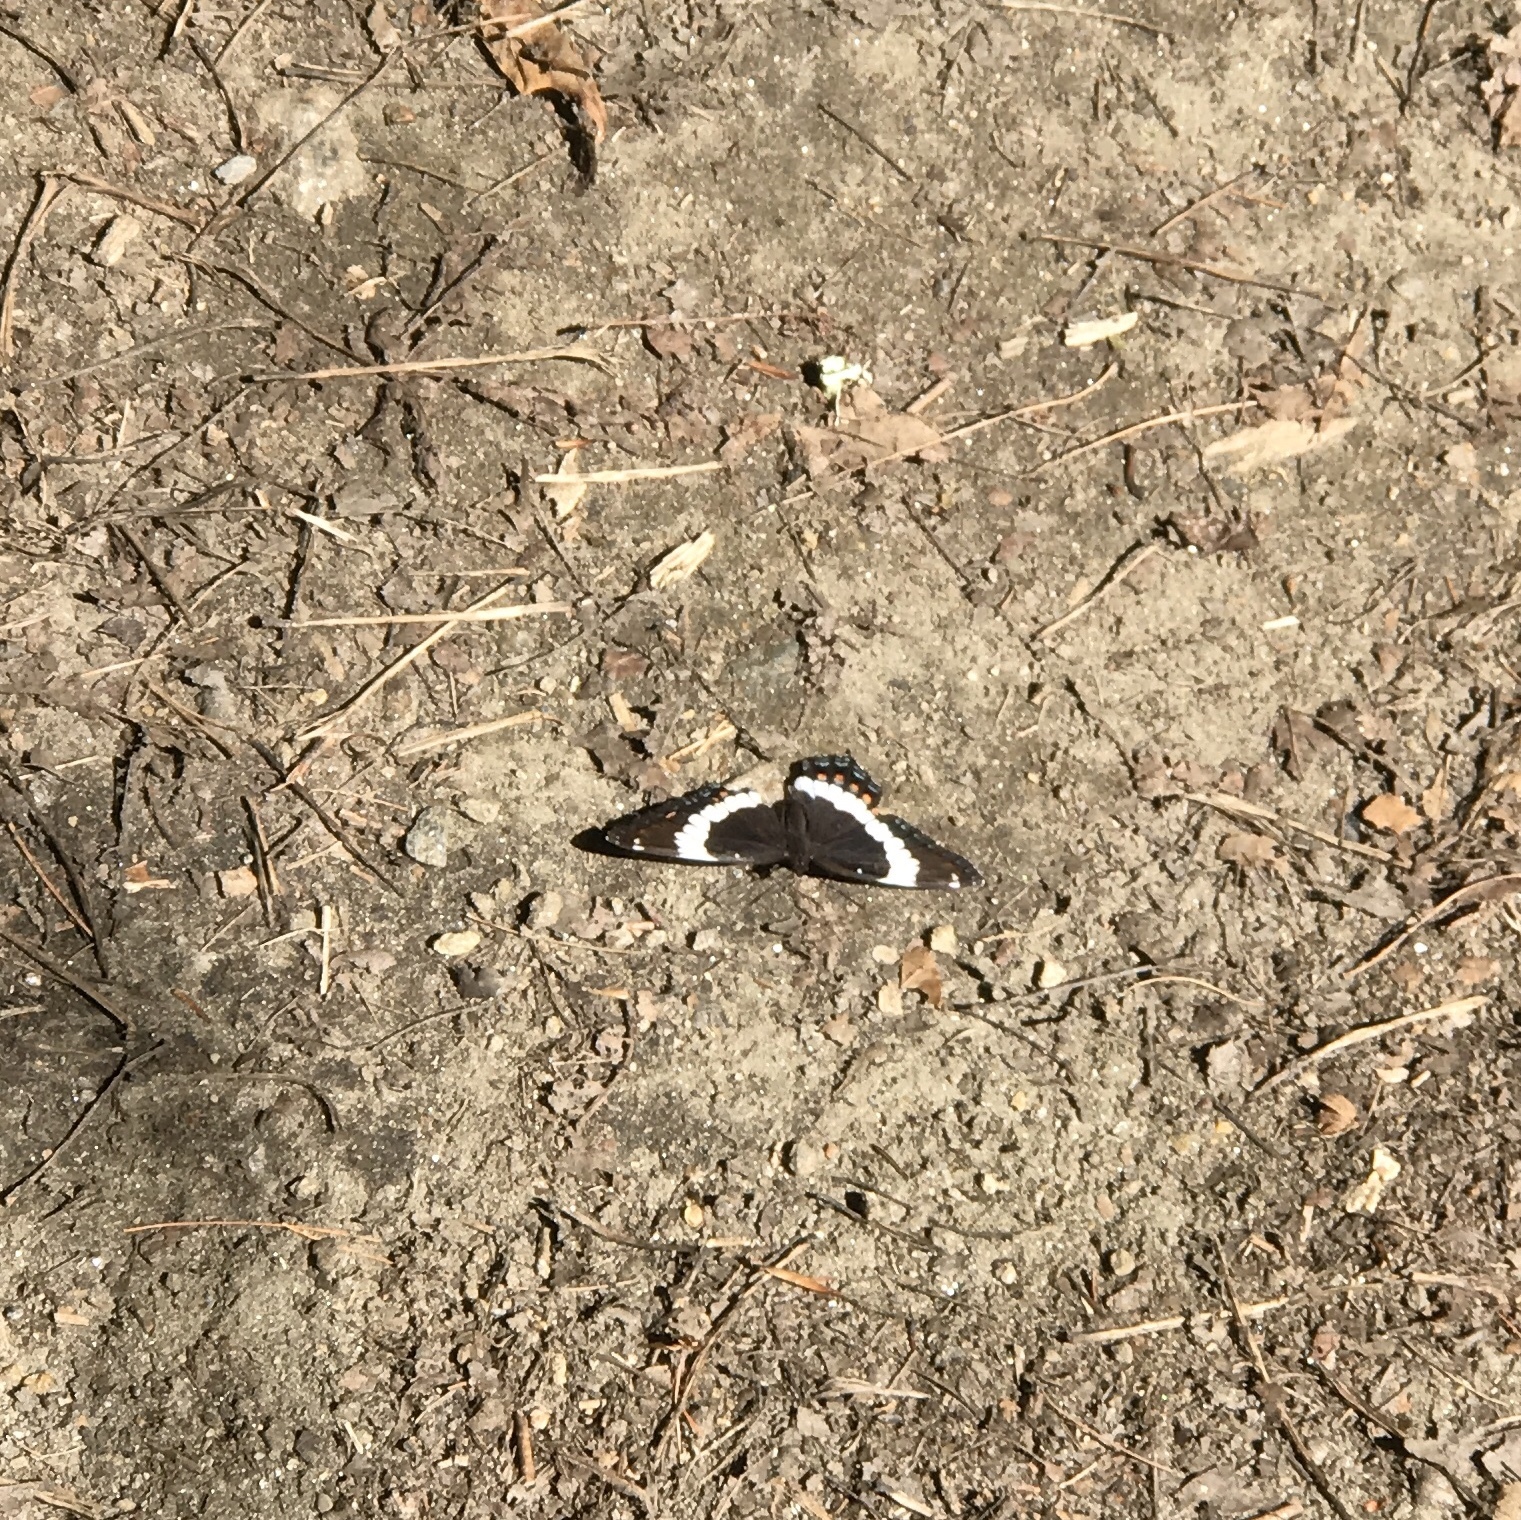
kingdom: Animalia
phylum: Arthropoda
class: Insecta
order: Lepidoptera
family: Nymphalidae
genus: Limenitis
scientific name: Limenitis arthemis
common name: Red-spotted admiral
